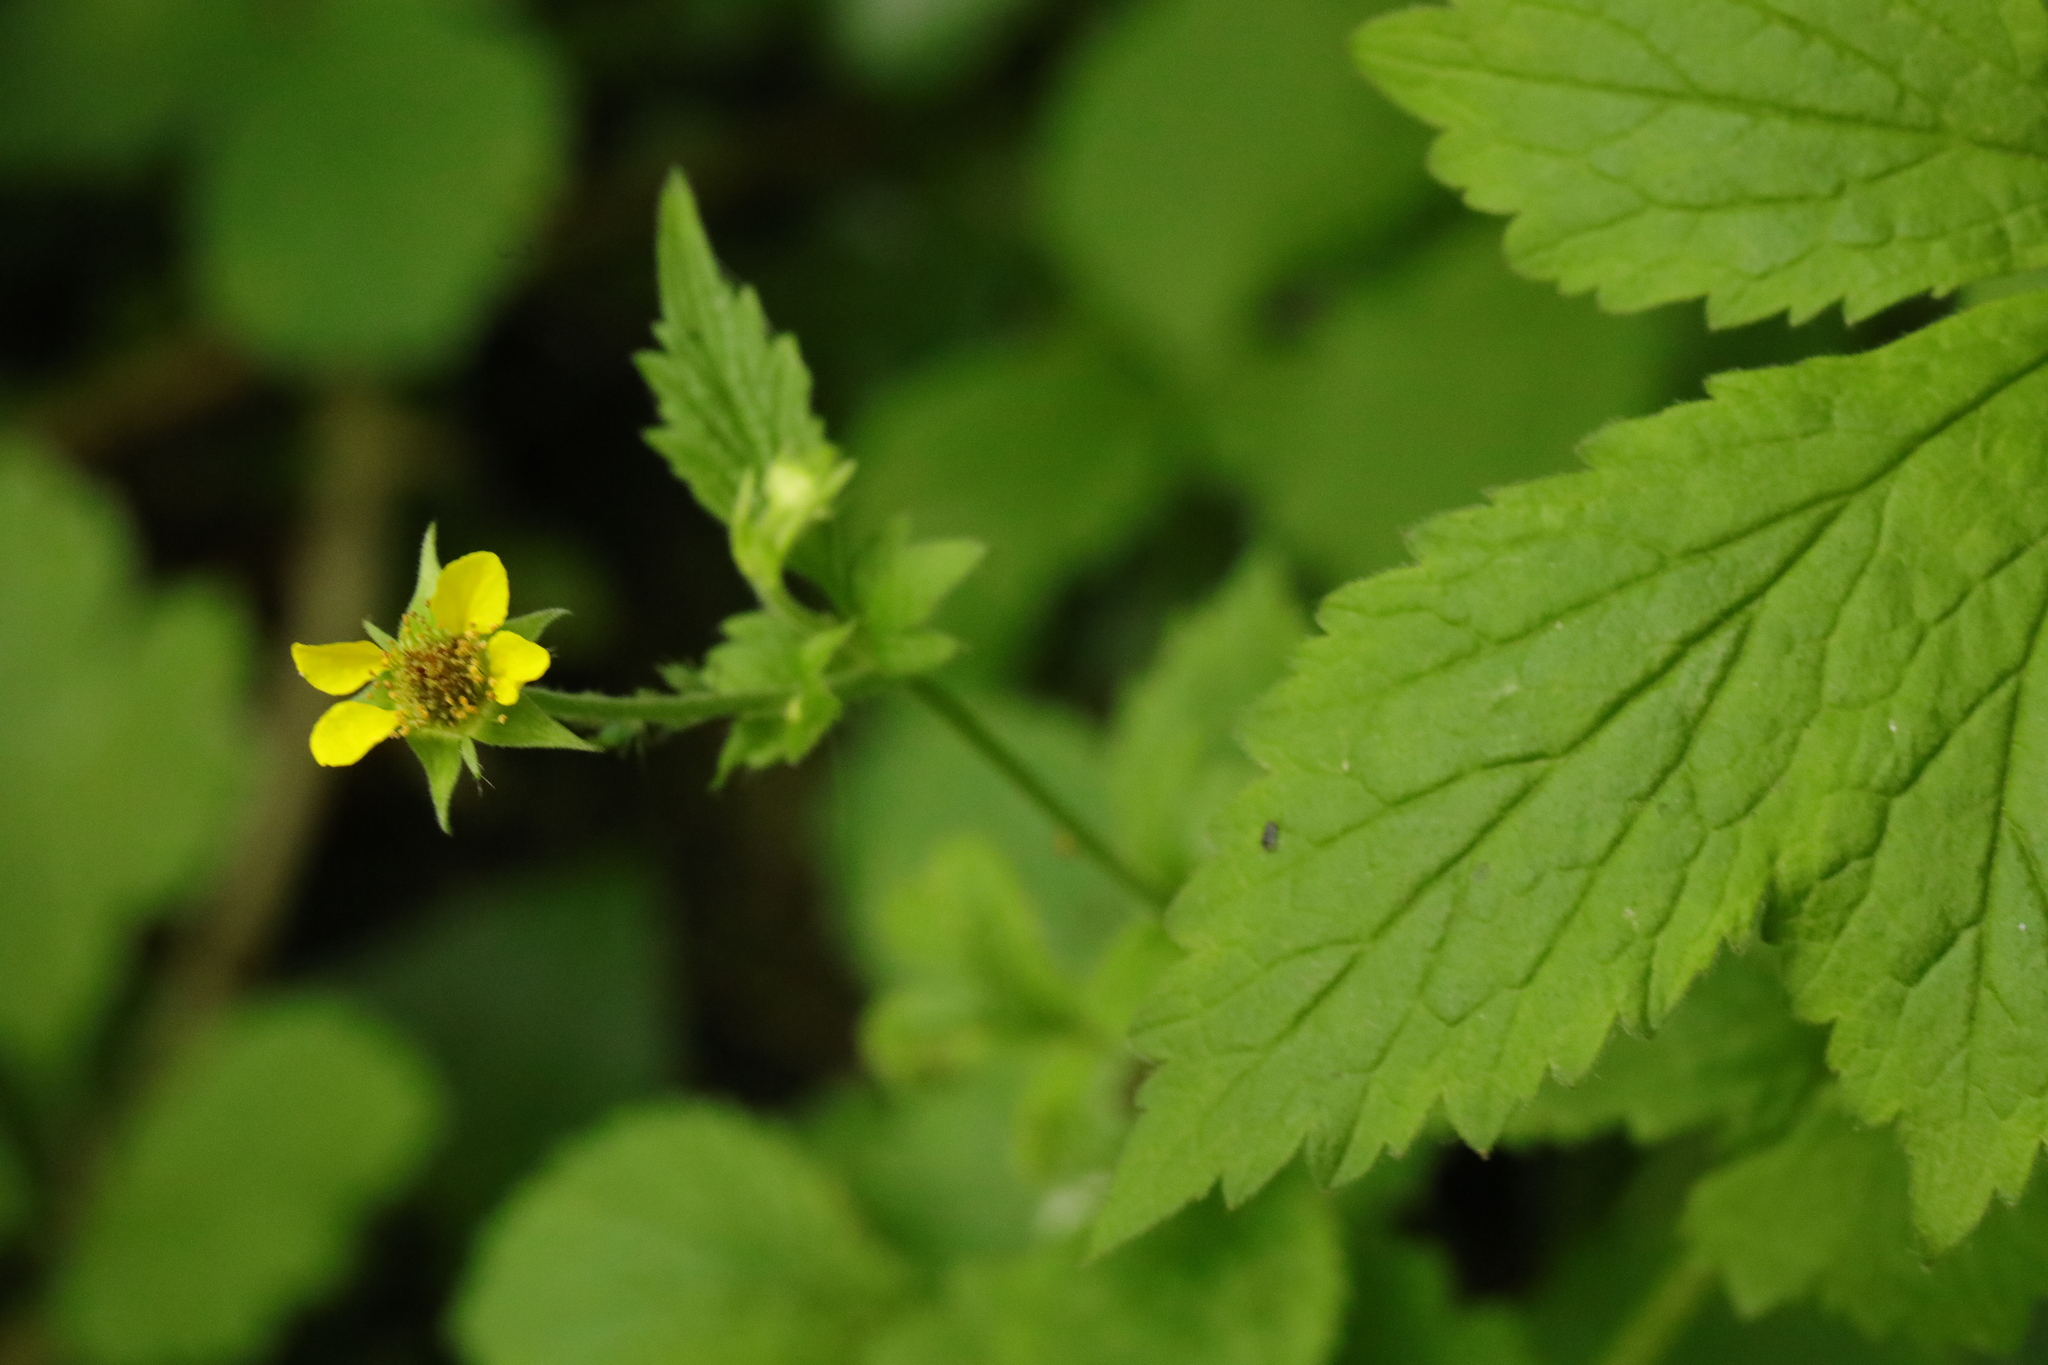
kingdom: Plantae
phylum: Tracheophyta
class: Magnoliopsida
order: Rosales
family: Rosaceae
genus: Geum
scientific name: Geum urbanum
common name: Wood avens
